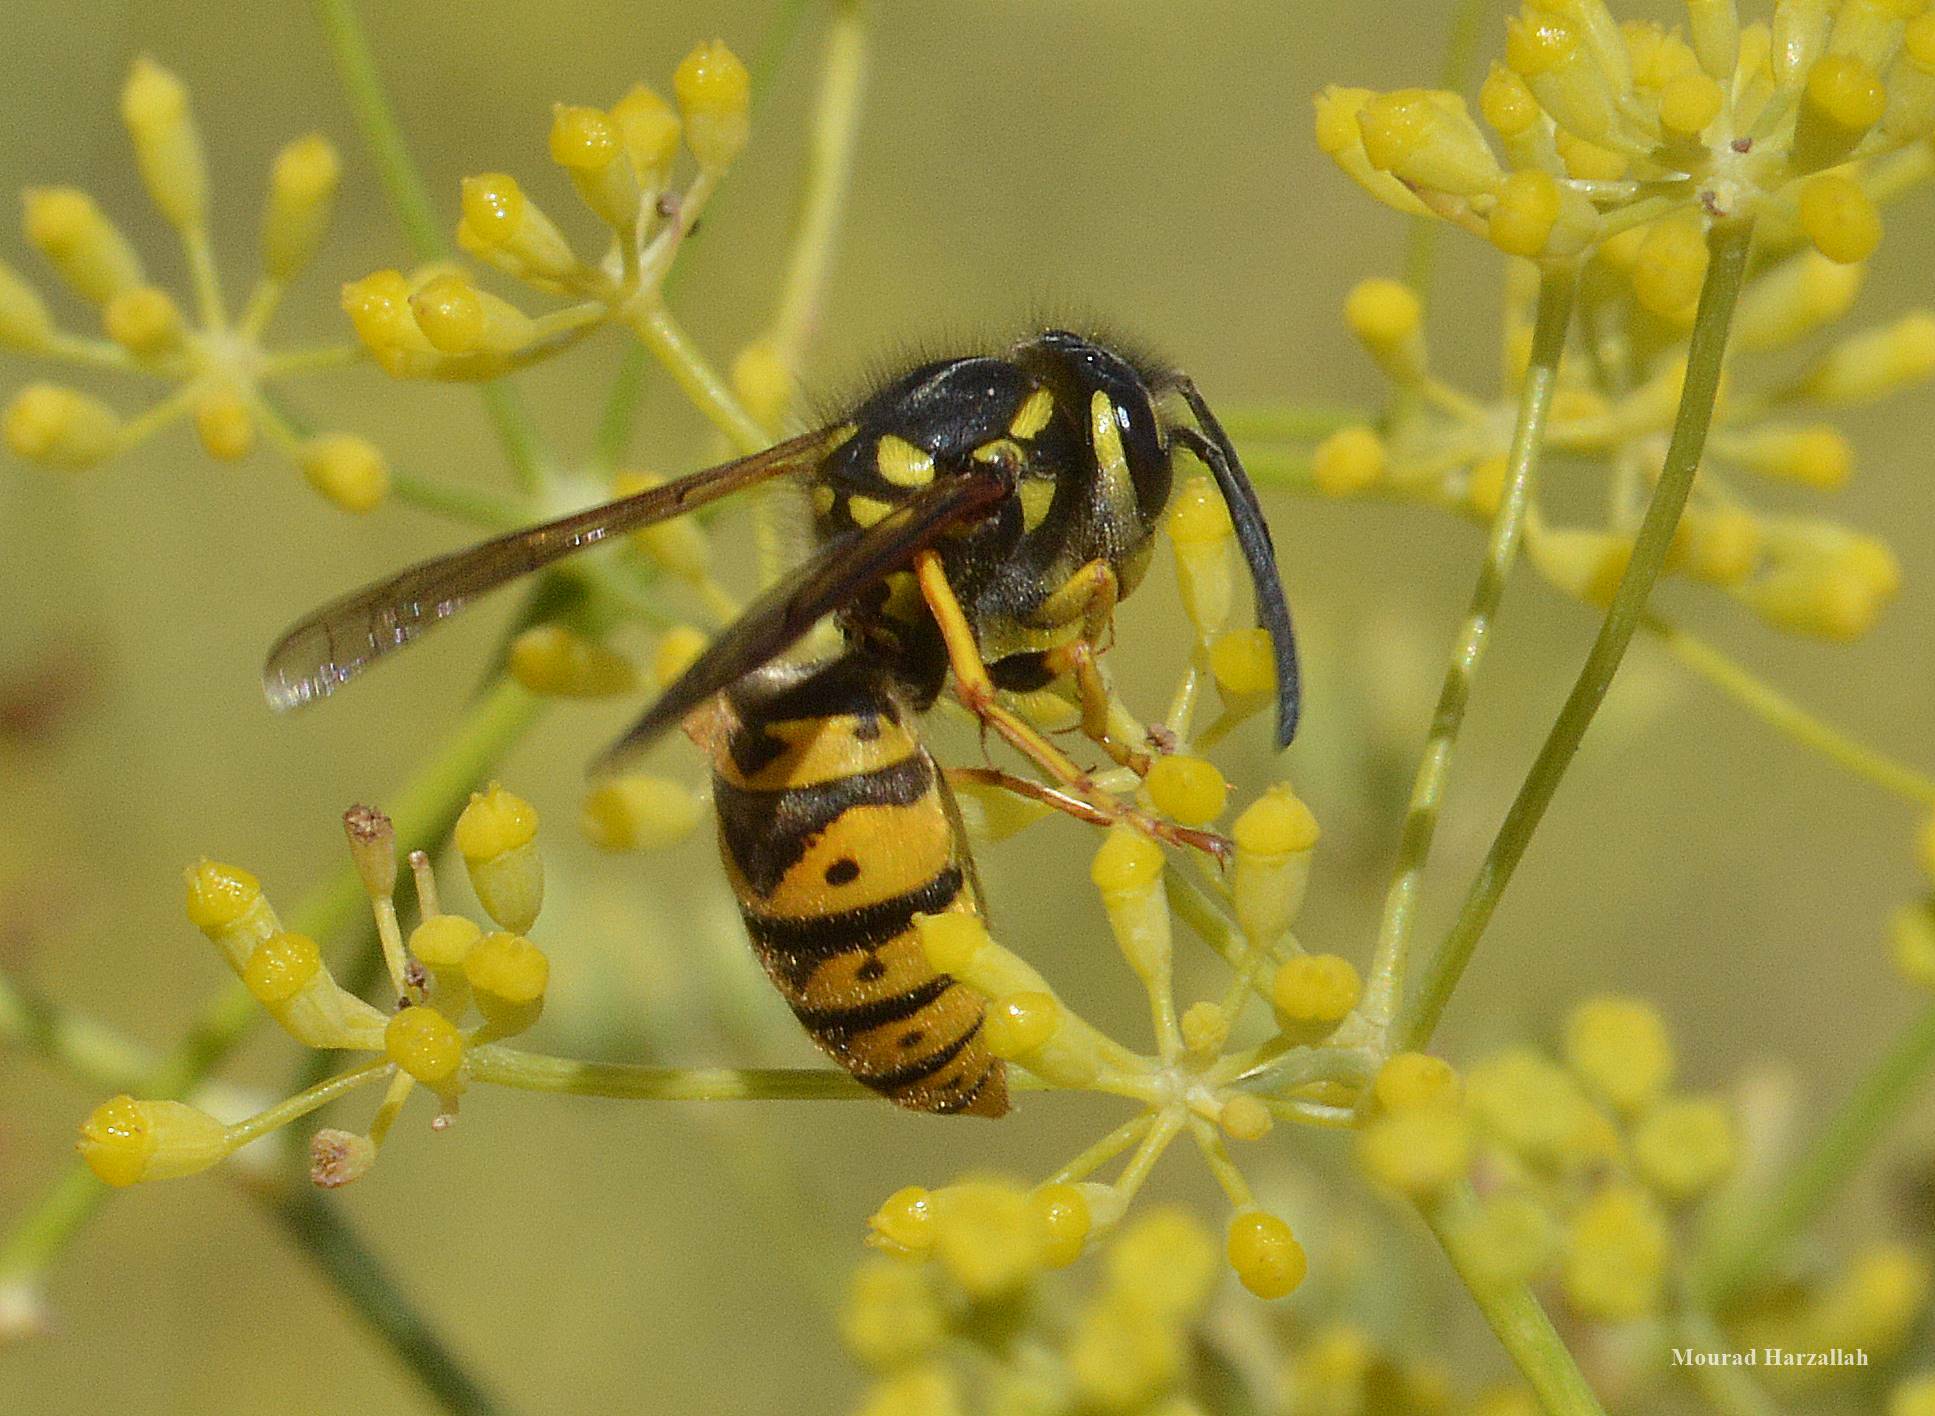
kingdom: Animalia
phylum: Arthropoda
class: Insecta
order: Hymenoptera
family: Vespidae
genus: Vespula
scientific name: Vespula germanica
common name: German wasp
